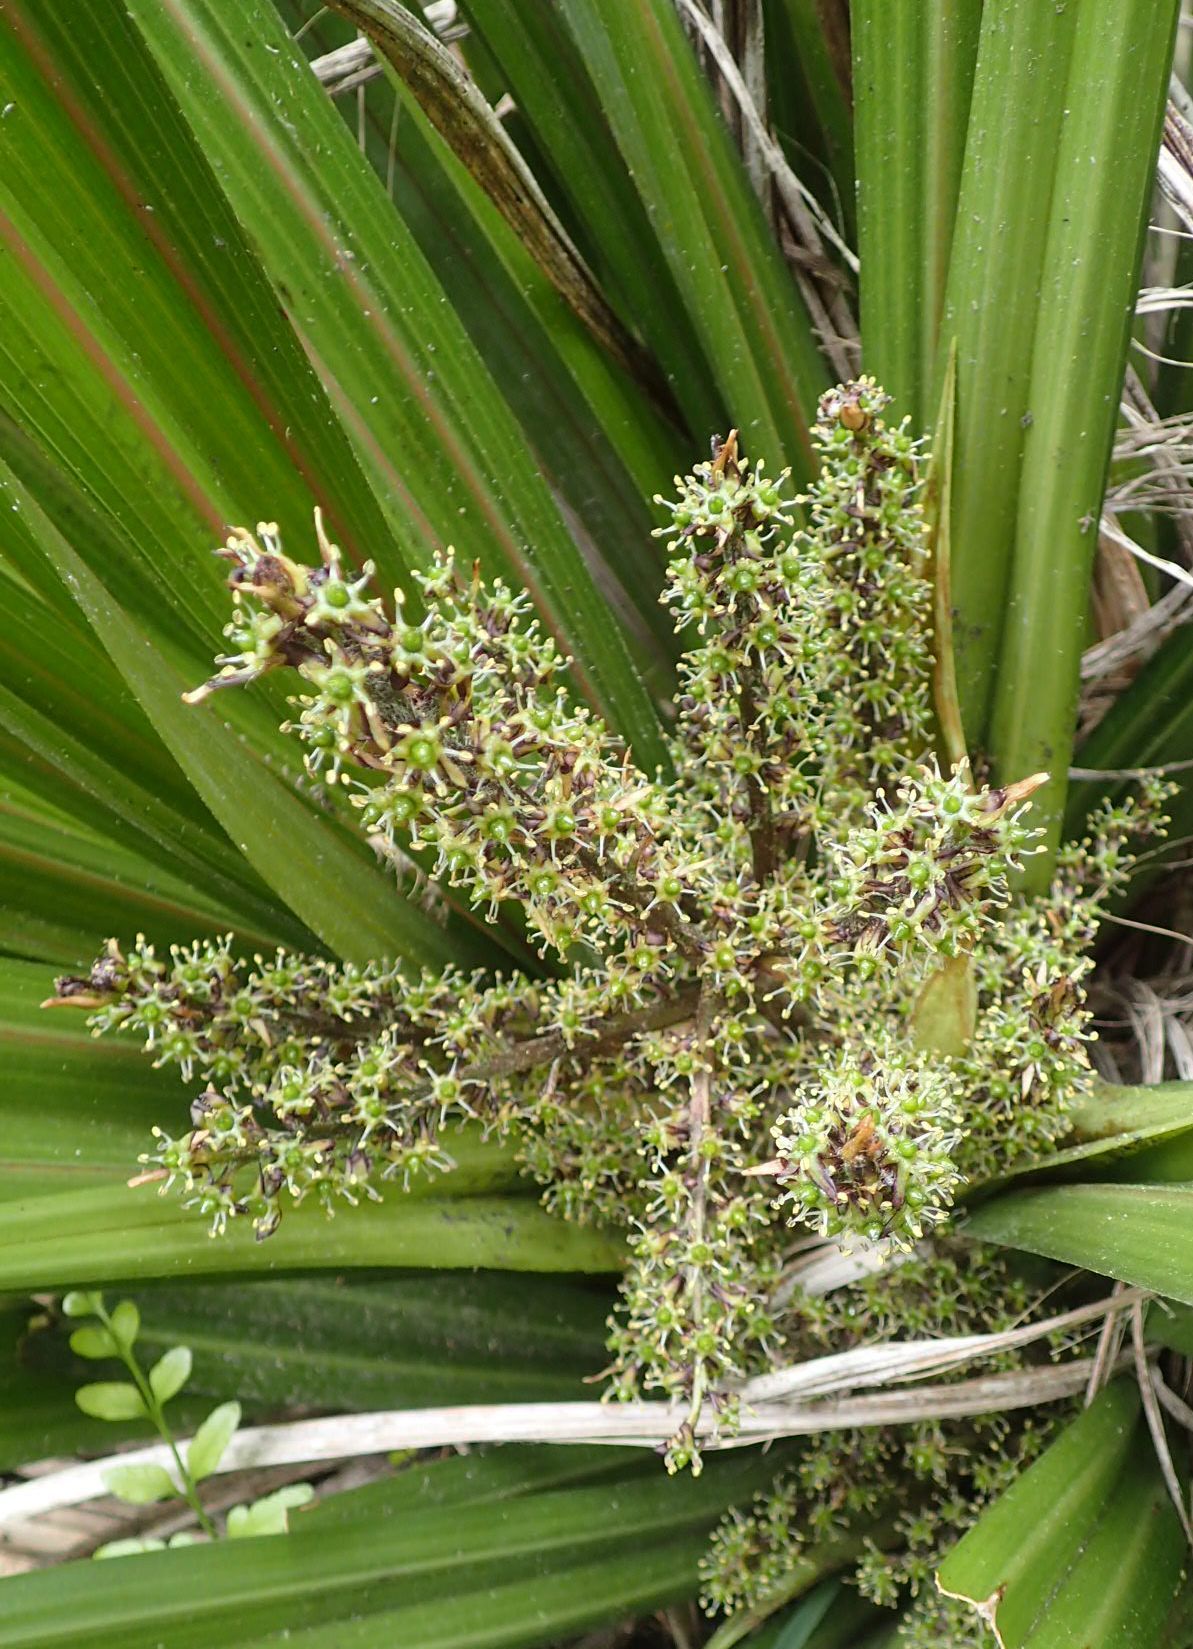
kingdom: Plantae
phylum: Tracheophyta
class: Liliopsida
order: Asparagales
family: Asteliaceae
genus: Astelia
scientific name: Astelia fragrans
